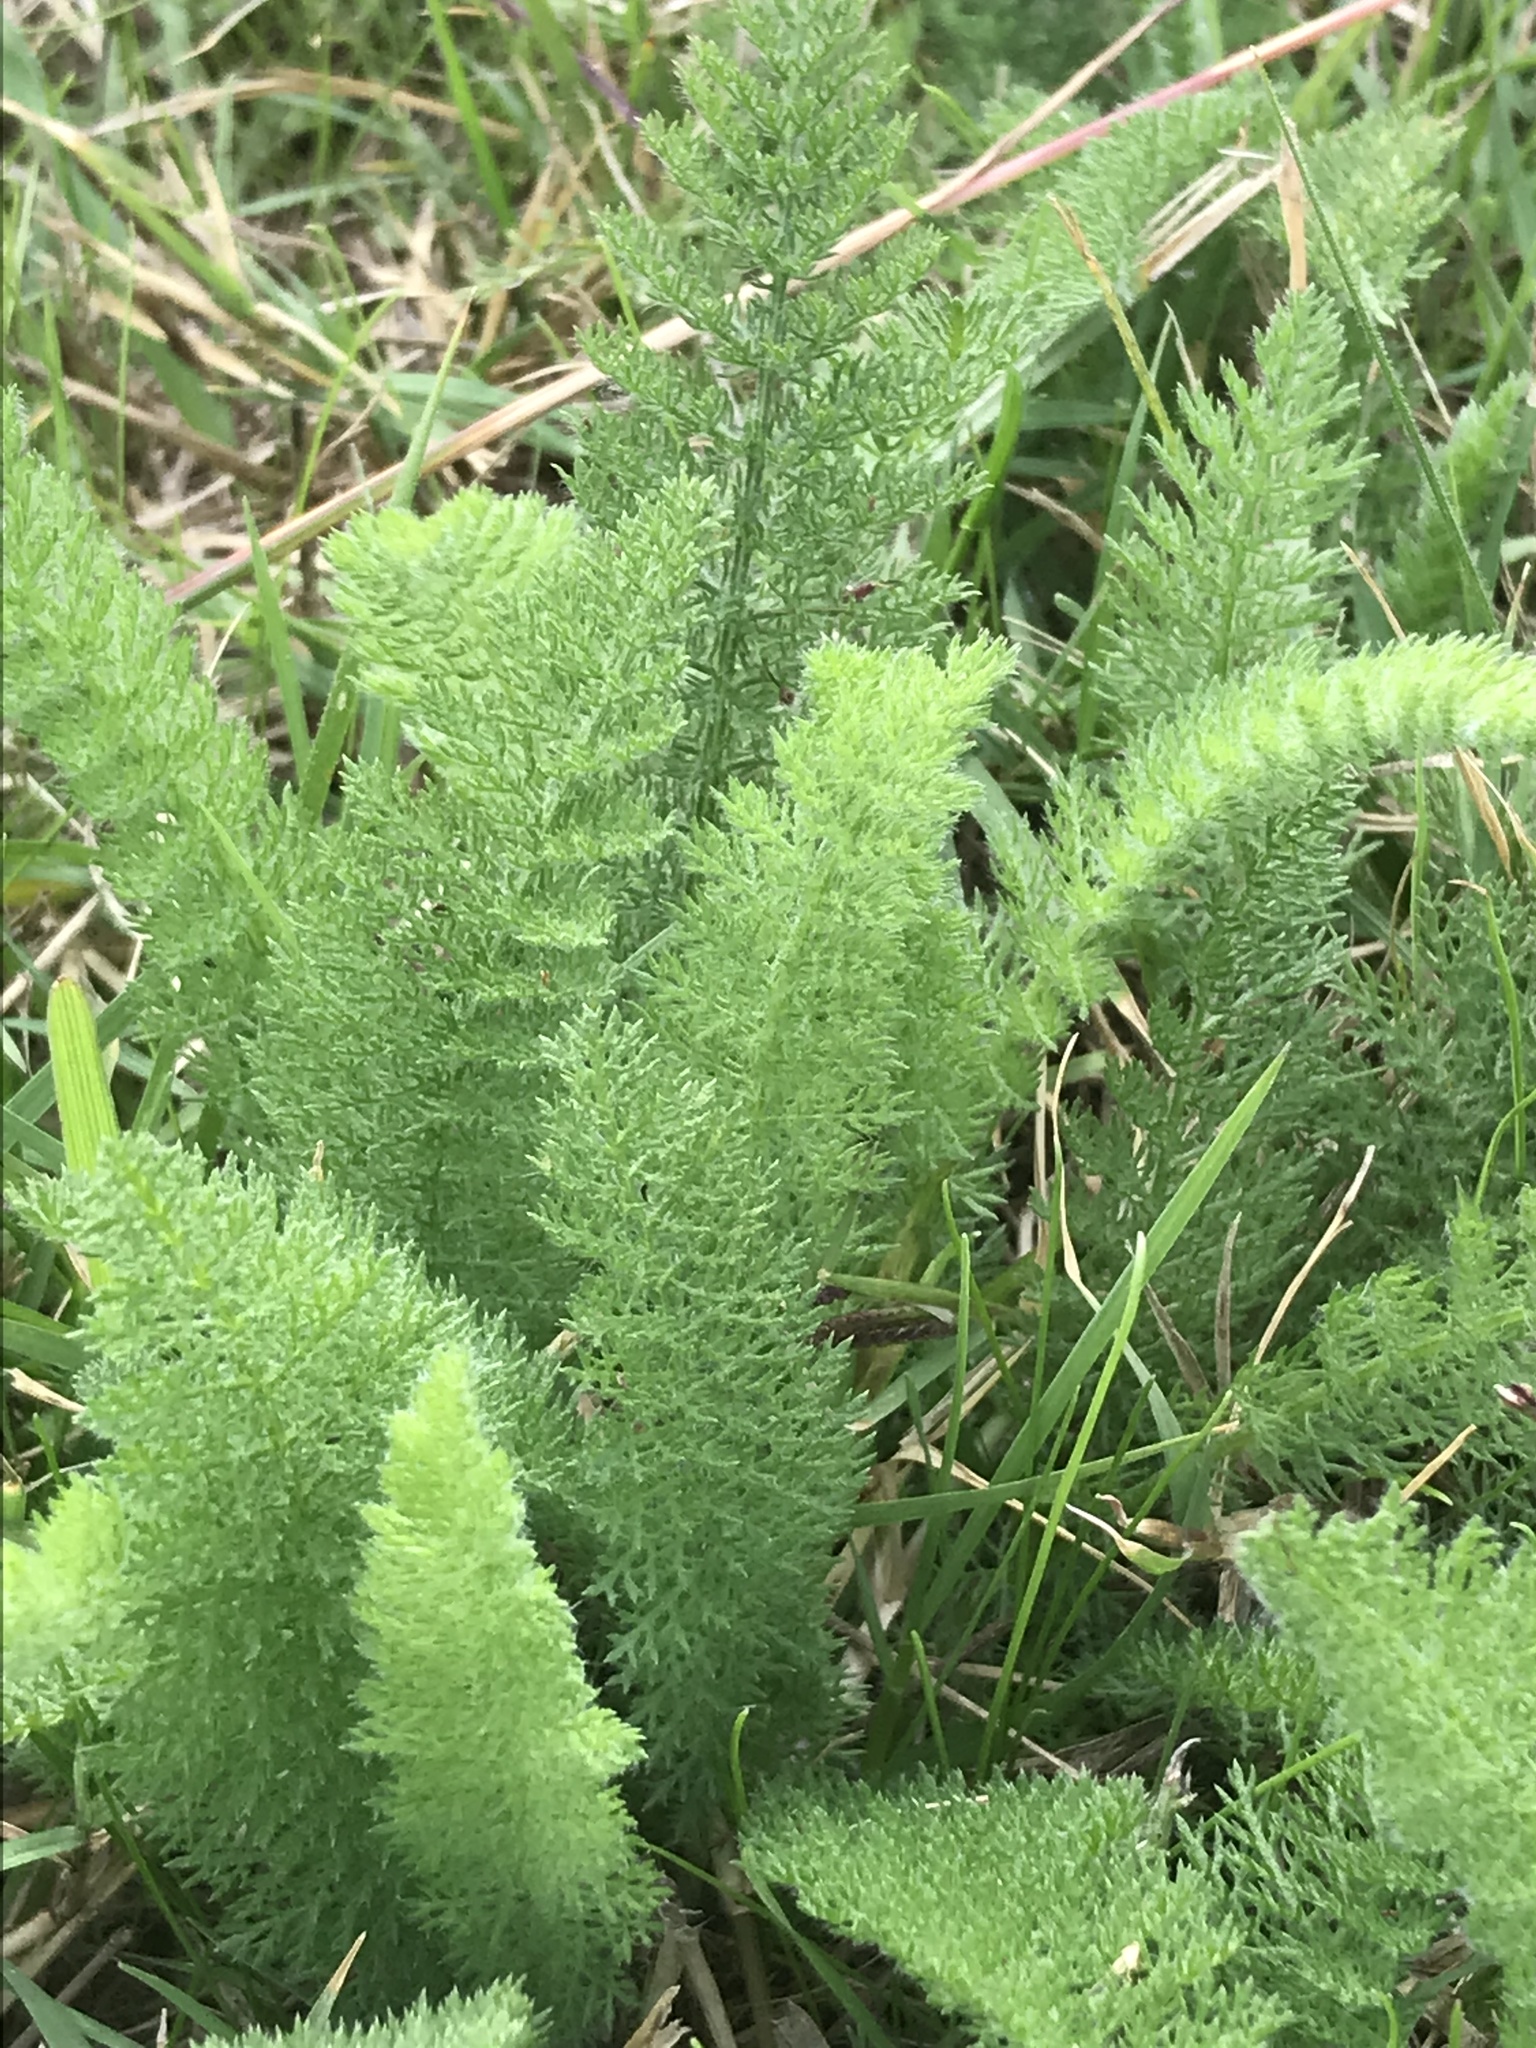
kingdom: Plantae
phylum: Tracheophyta
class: Magnoliopsida
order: Asterales
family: Asteraceae
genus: Achillea
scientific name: Achillea millefolium
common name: Yarrow
